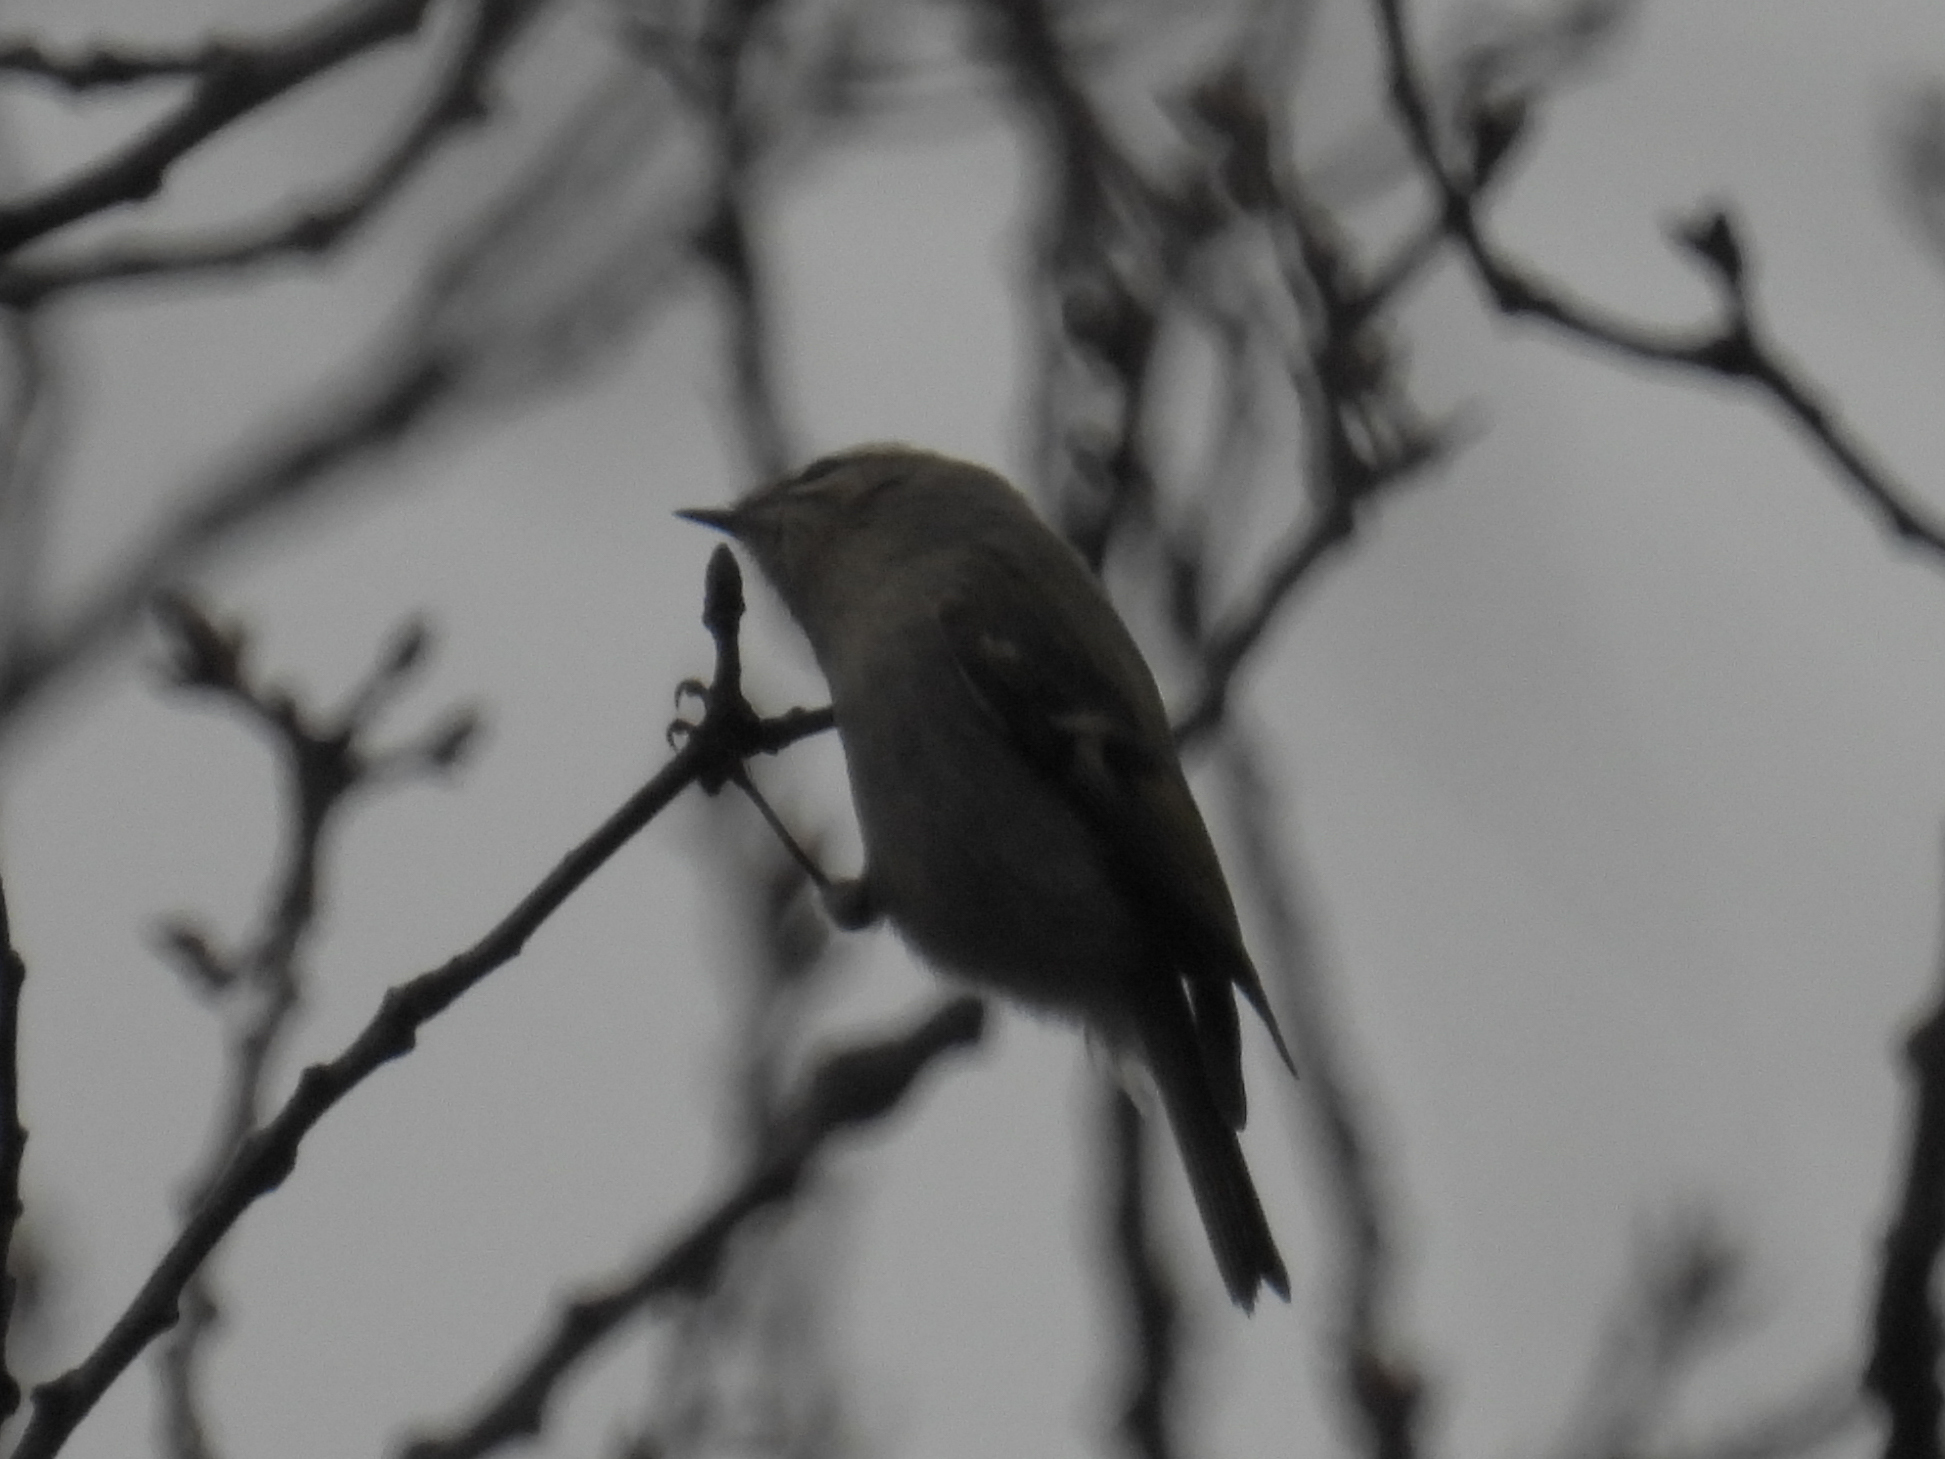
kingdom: Animalia
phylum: Chordata
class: Aves
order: Passeriformes
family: Regulidae
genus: Regulus
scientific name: Regulus satrapa
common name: Golden-crowned kinglet
